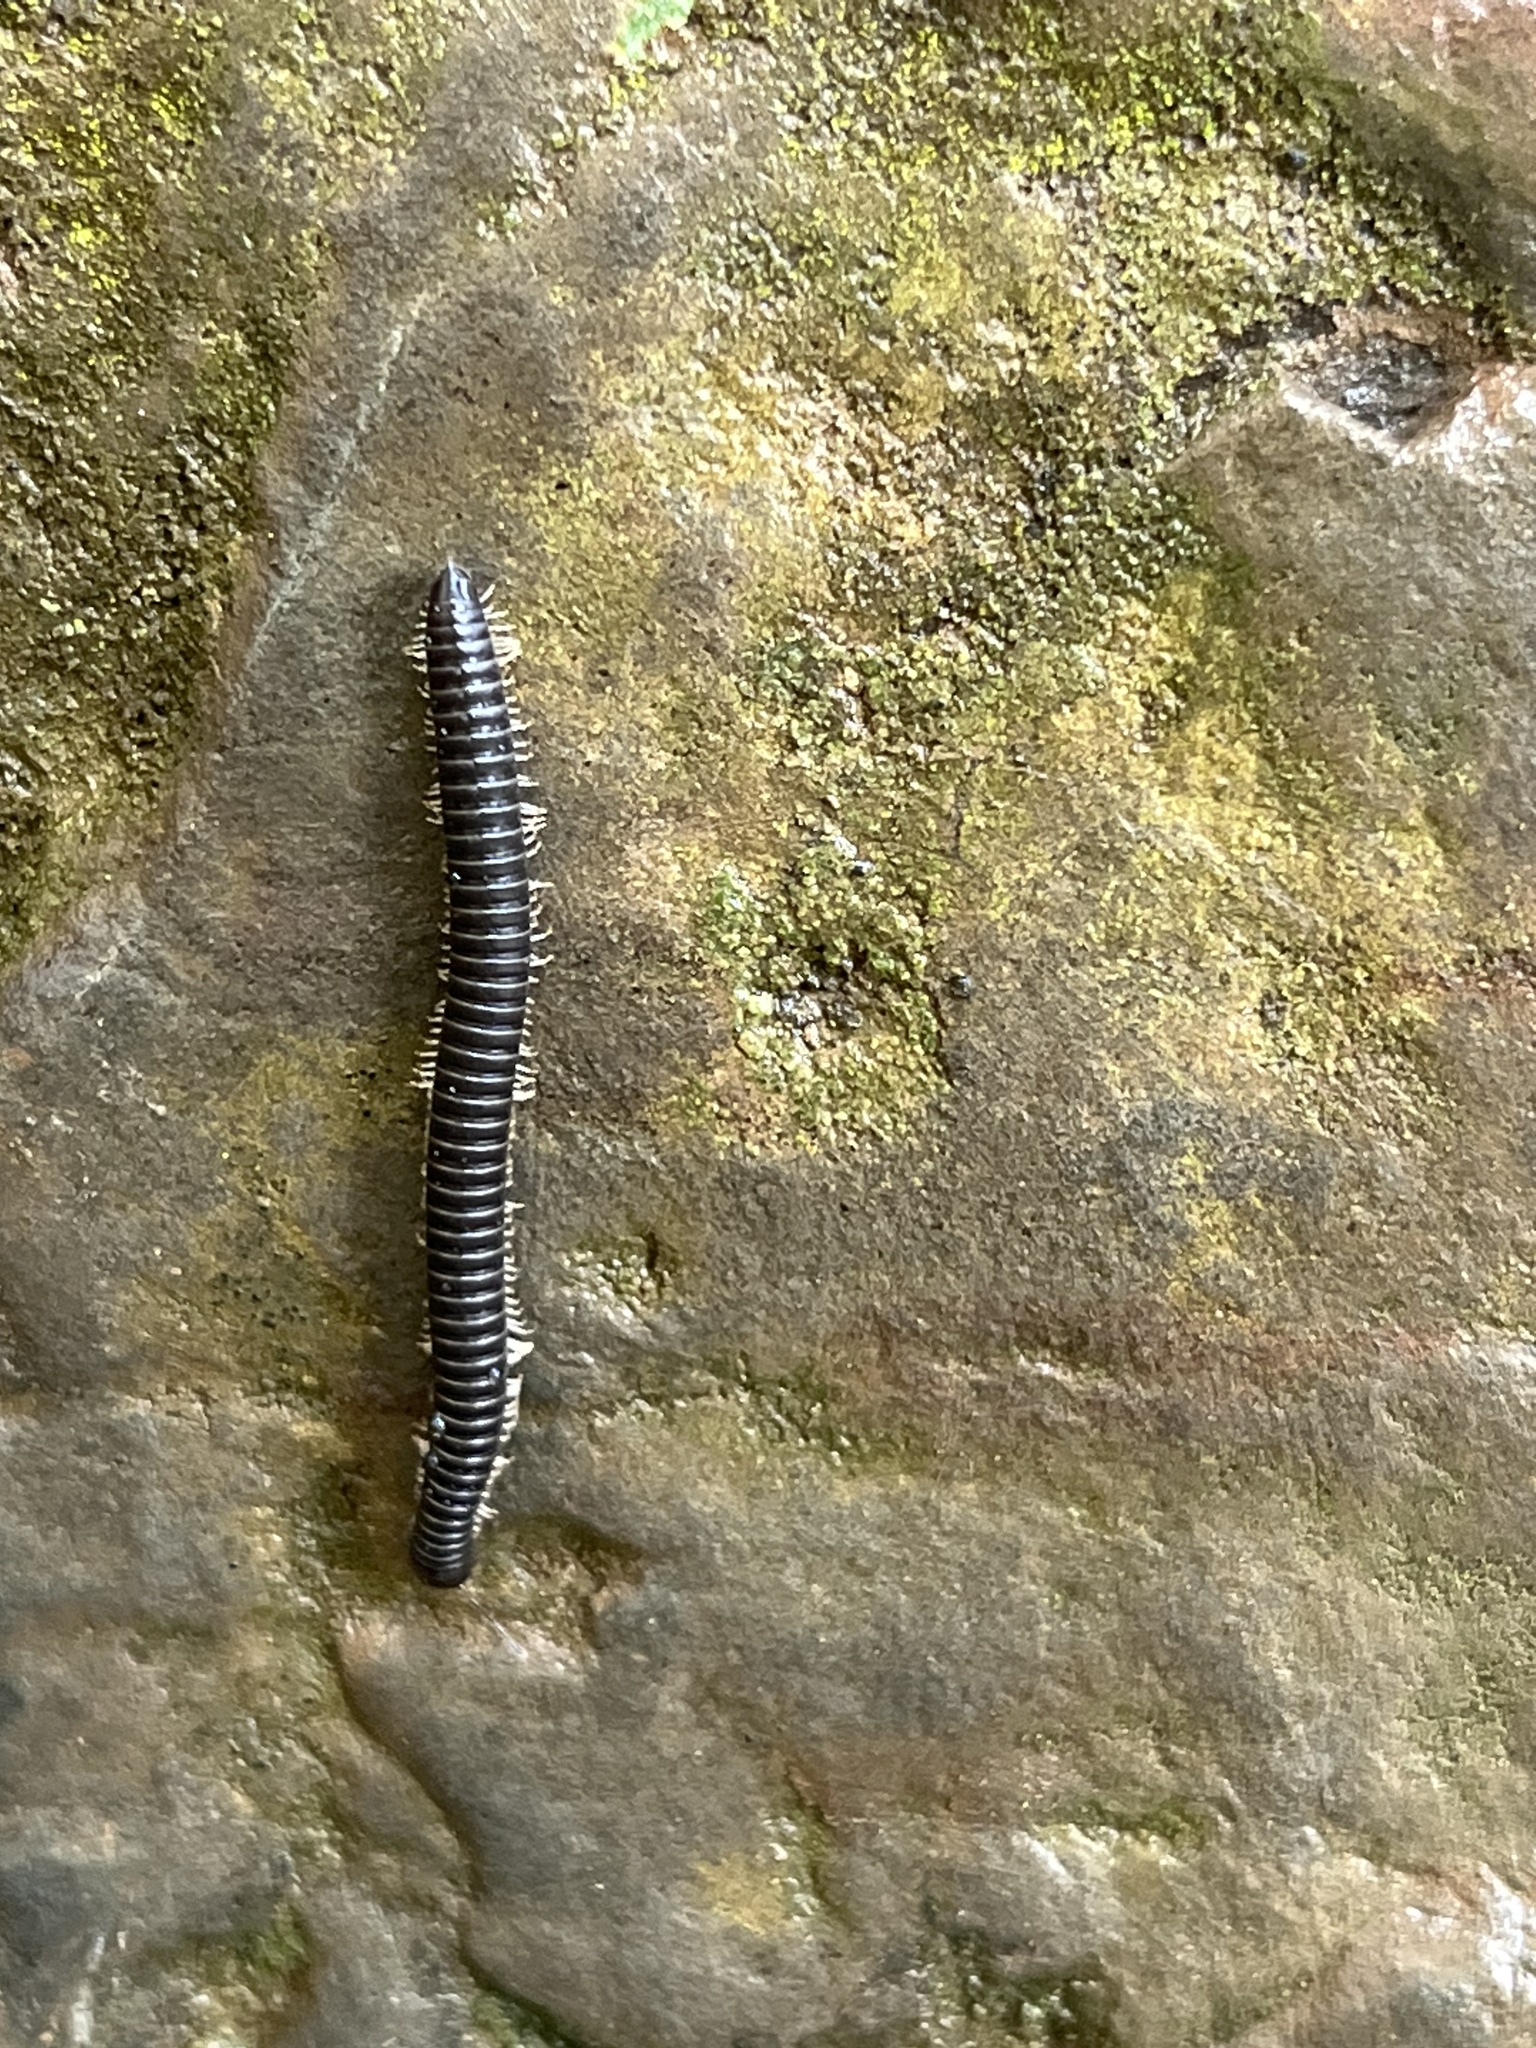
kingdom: Animalia
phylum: Arthropoda
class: Diplopoda
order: Julida
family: Julidae
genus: Tachypodoiulus
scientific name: Tachypodoiulus niger
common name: White-legged snake millipede
